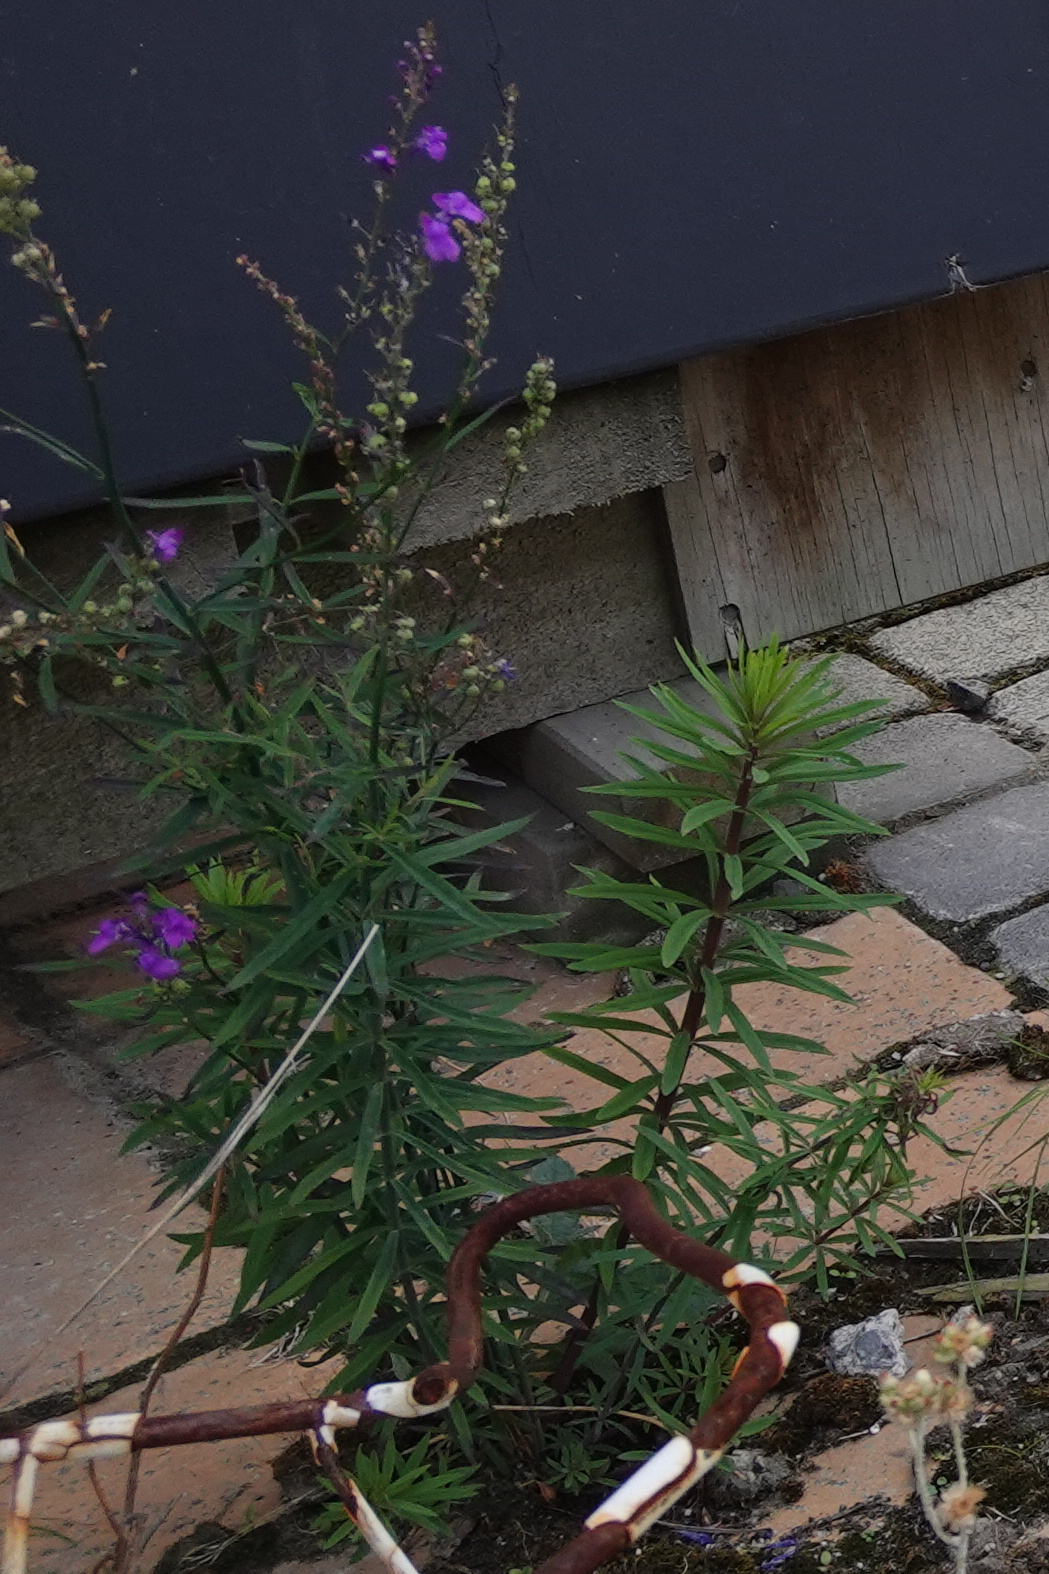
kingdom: Plantae
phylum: Tracheophyta
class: Magnoliopsida
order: Lamiales
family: Plantaginaceae
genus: Linaria
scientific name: Linaria purpurea
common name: Purple toadflax
